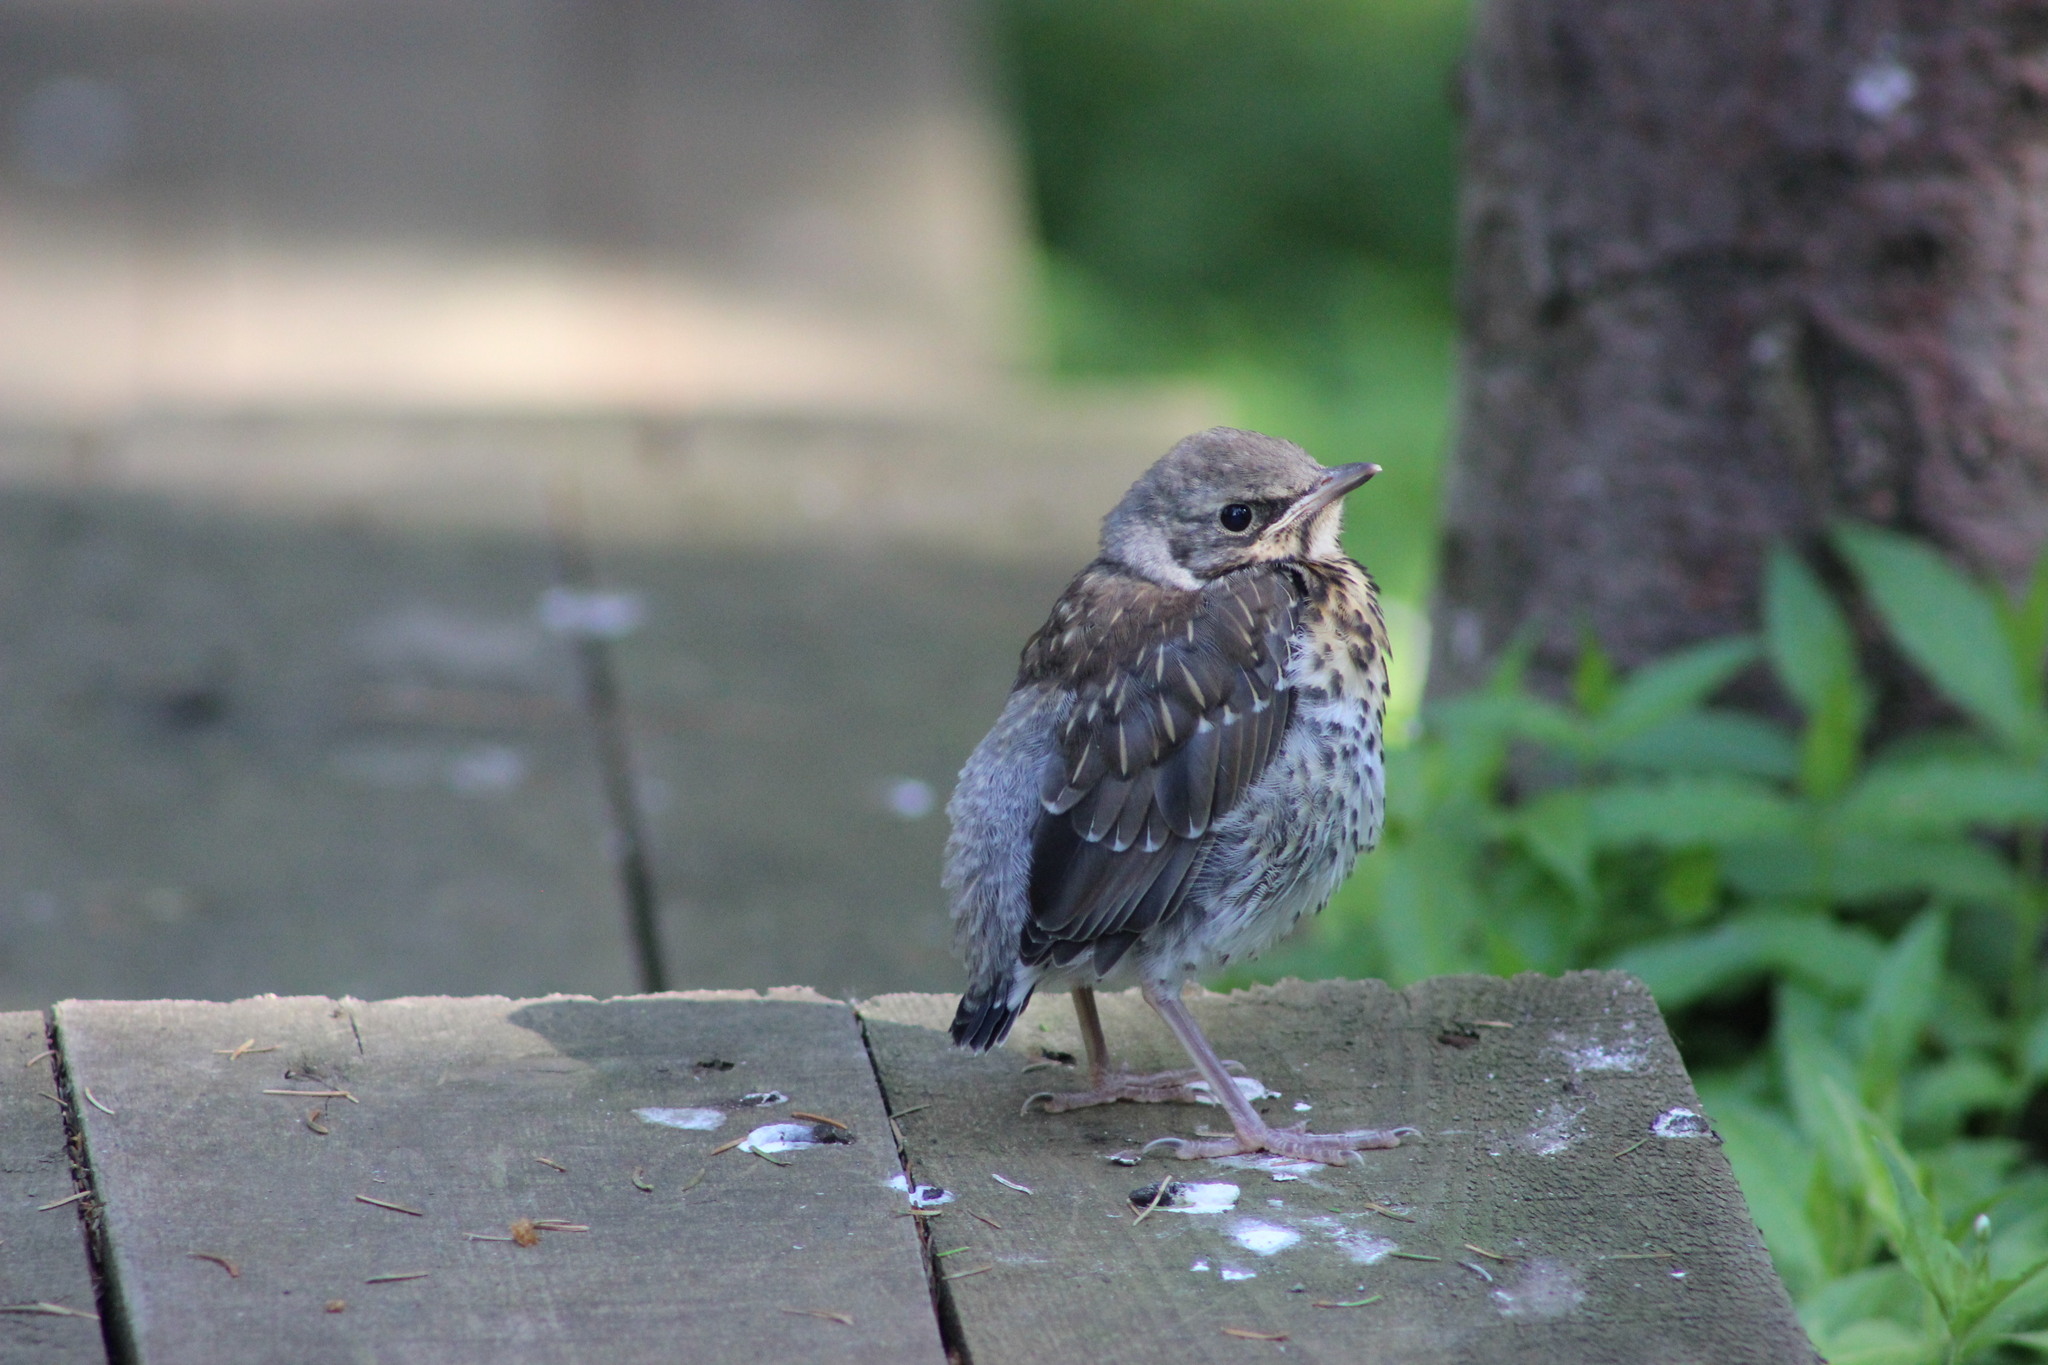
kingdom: Animalia
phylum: Chordata
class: Aves
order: Passeriformes
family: Turdidae
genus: Turdus
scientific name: Turdus pilaris
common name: Fieldfare
